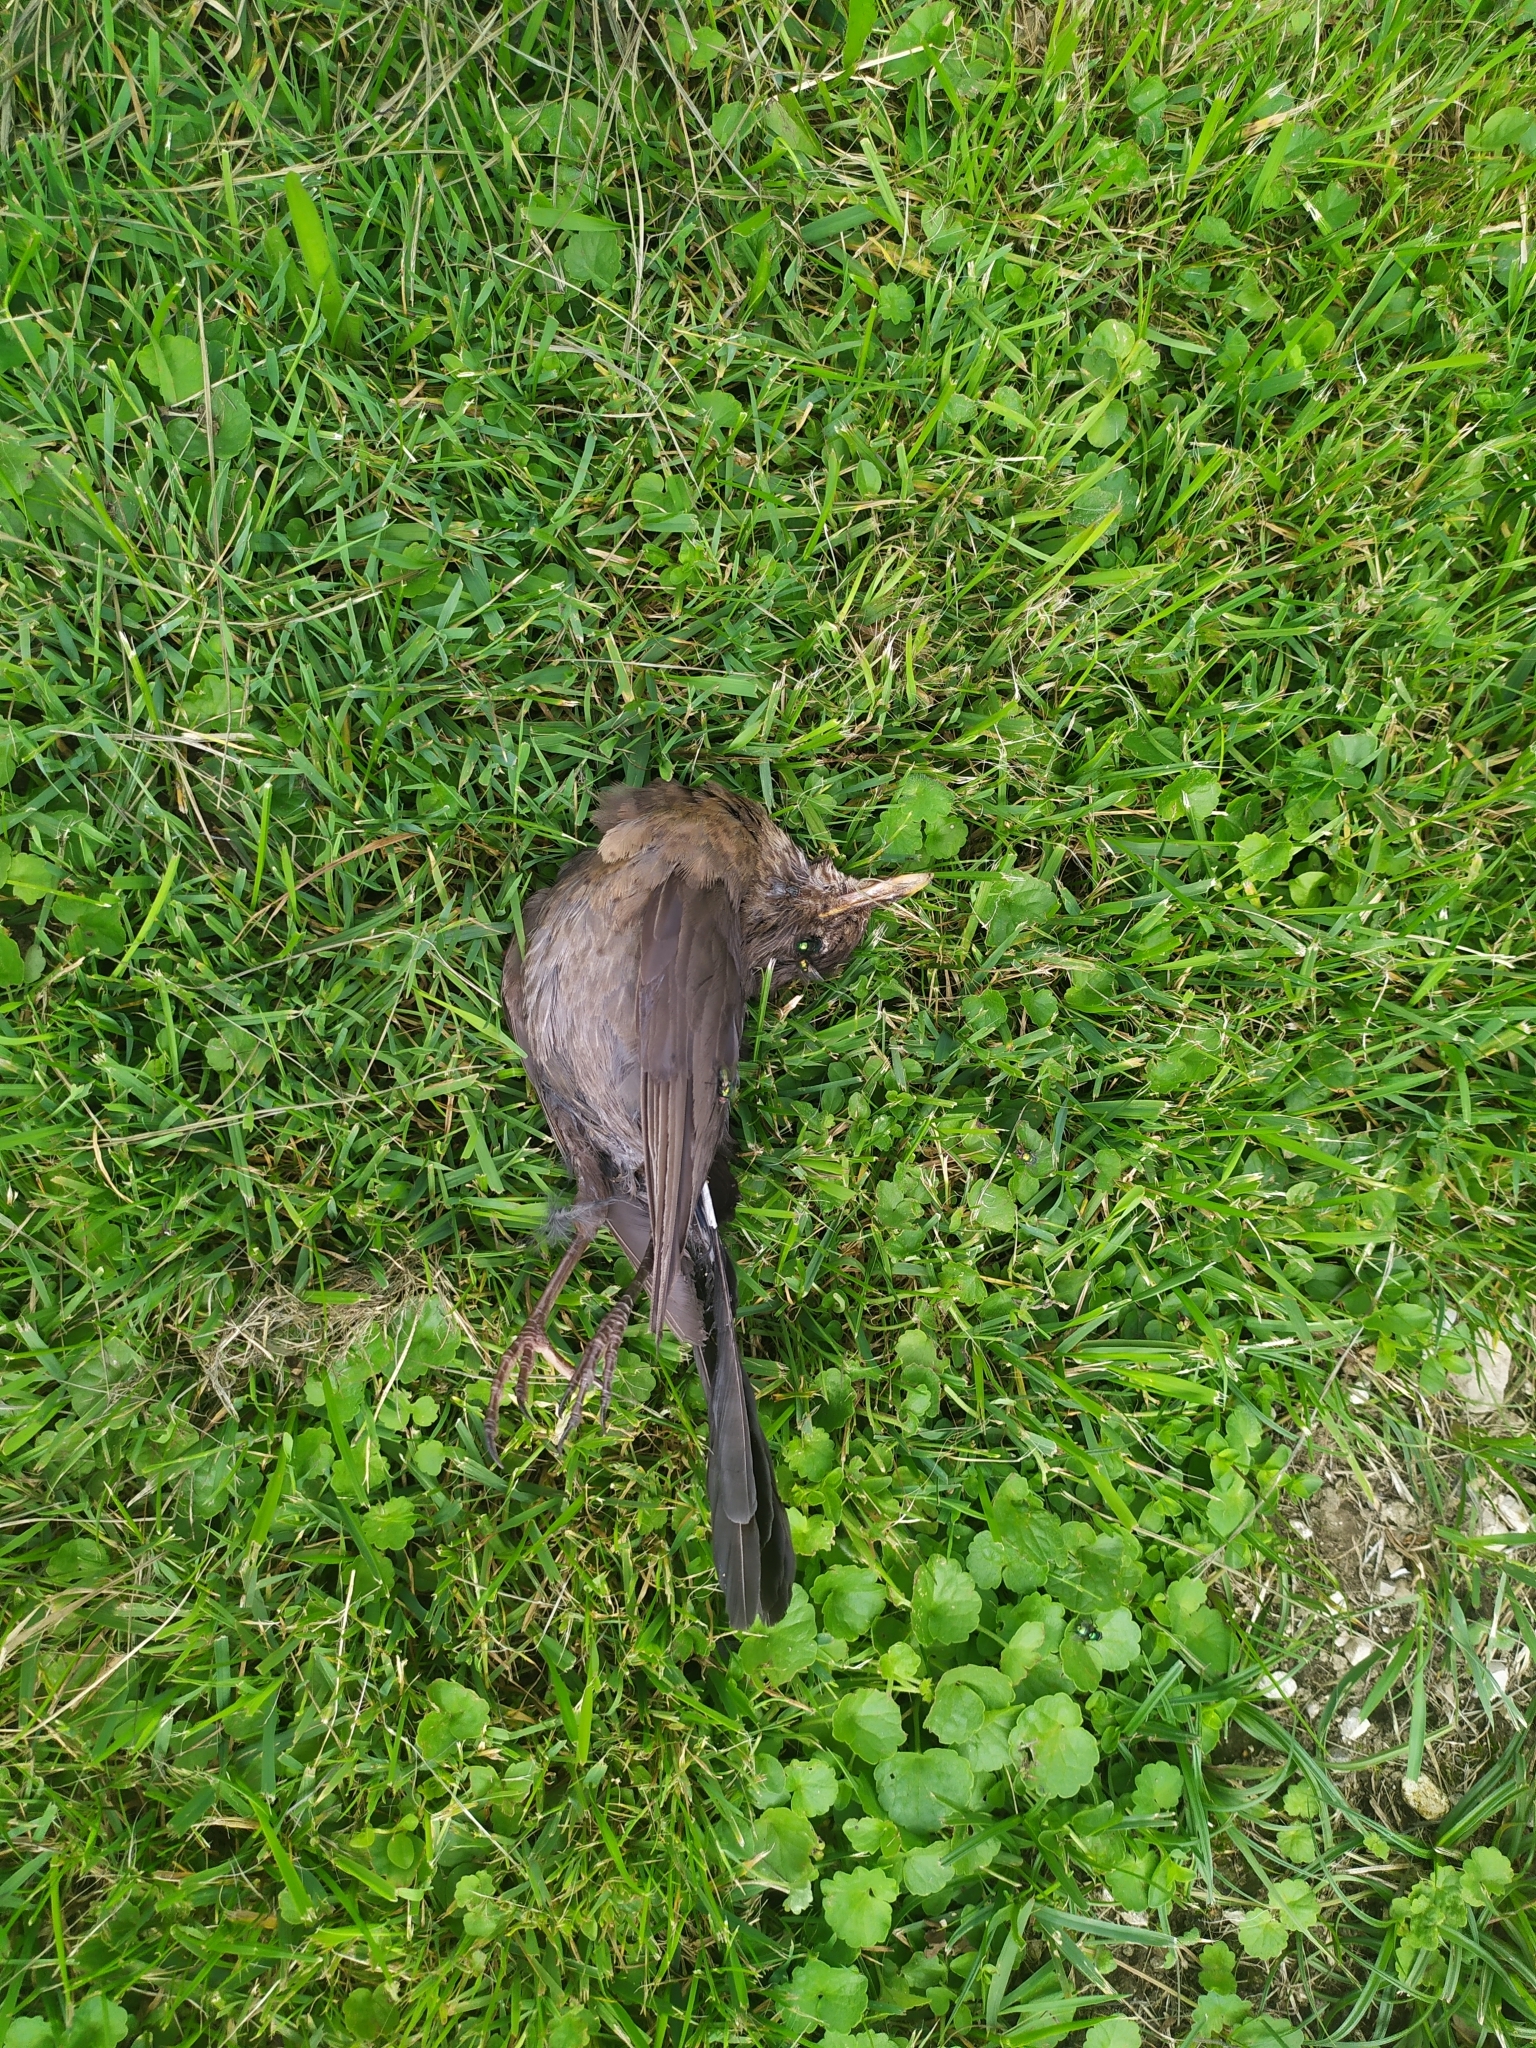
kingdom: Animalia
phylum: Chordata
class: Aves
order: Passeriformes
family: Turdidae
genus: Turdus
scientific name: Turdus merula
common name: Common blackbird
